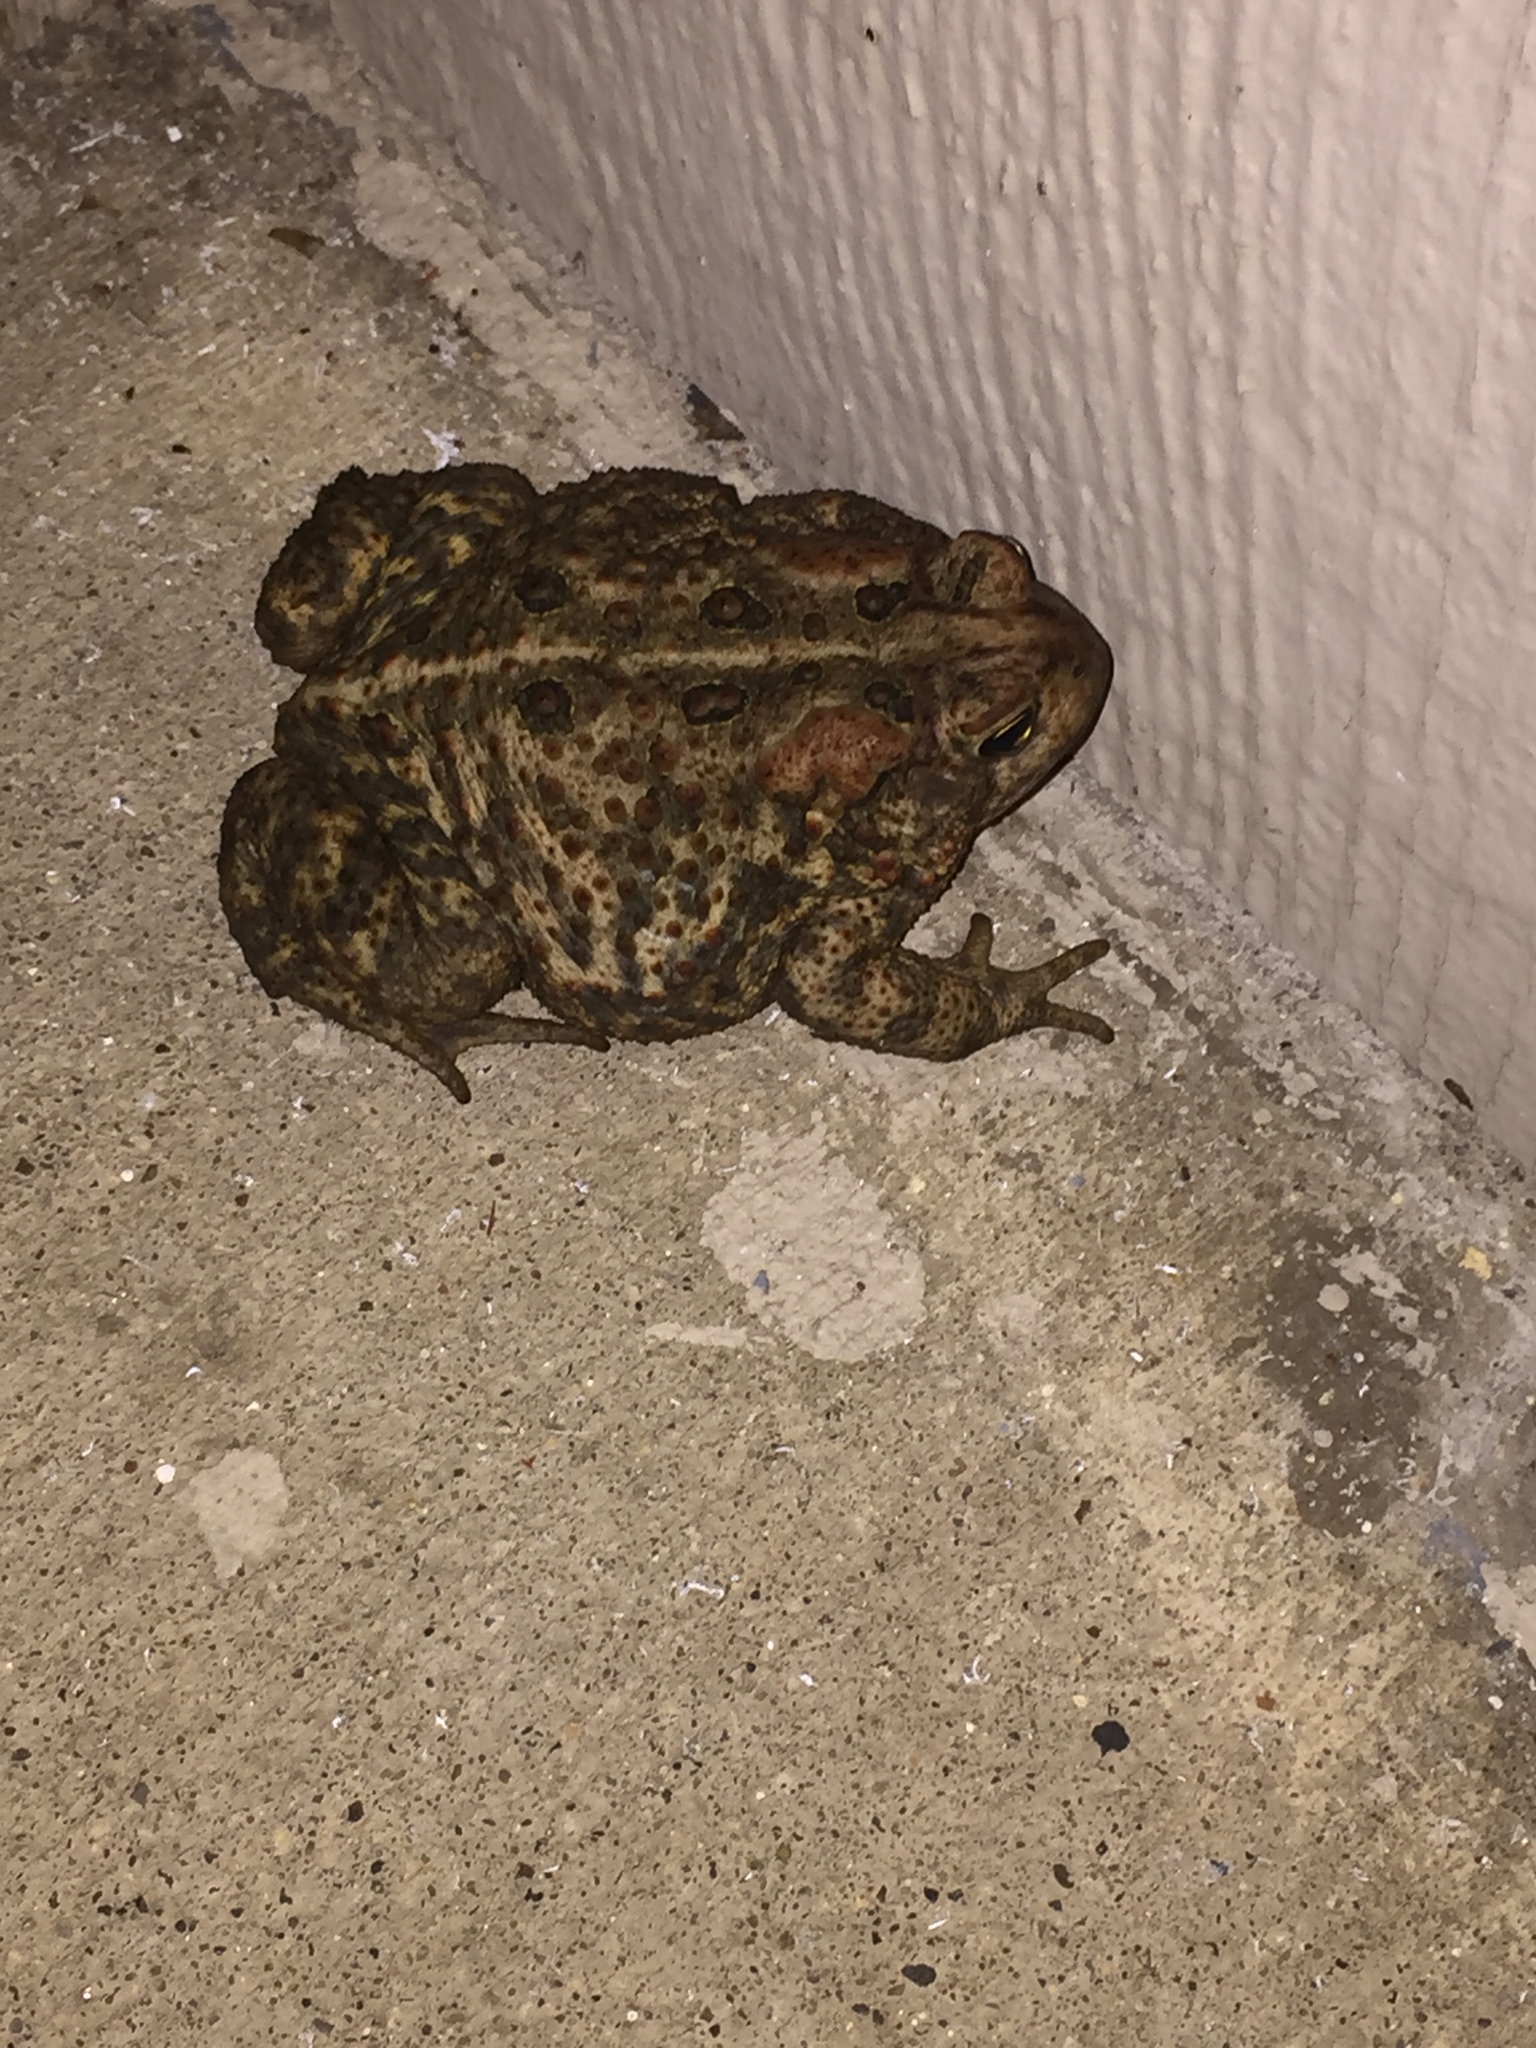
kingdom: Animalia
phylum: Chordata
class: Amphibia
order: Anura
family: Bufonidae
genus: Anaxyrus
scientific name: Anaxyrus americanus
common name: American toad
